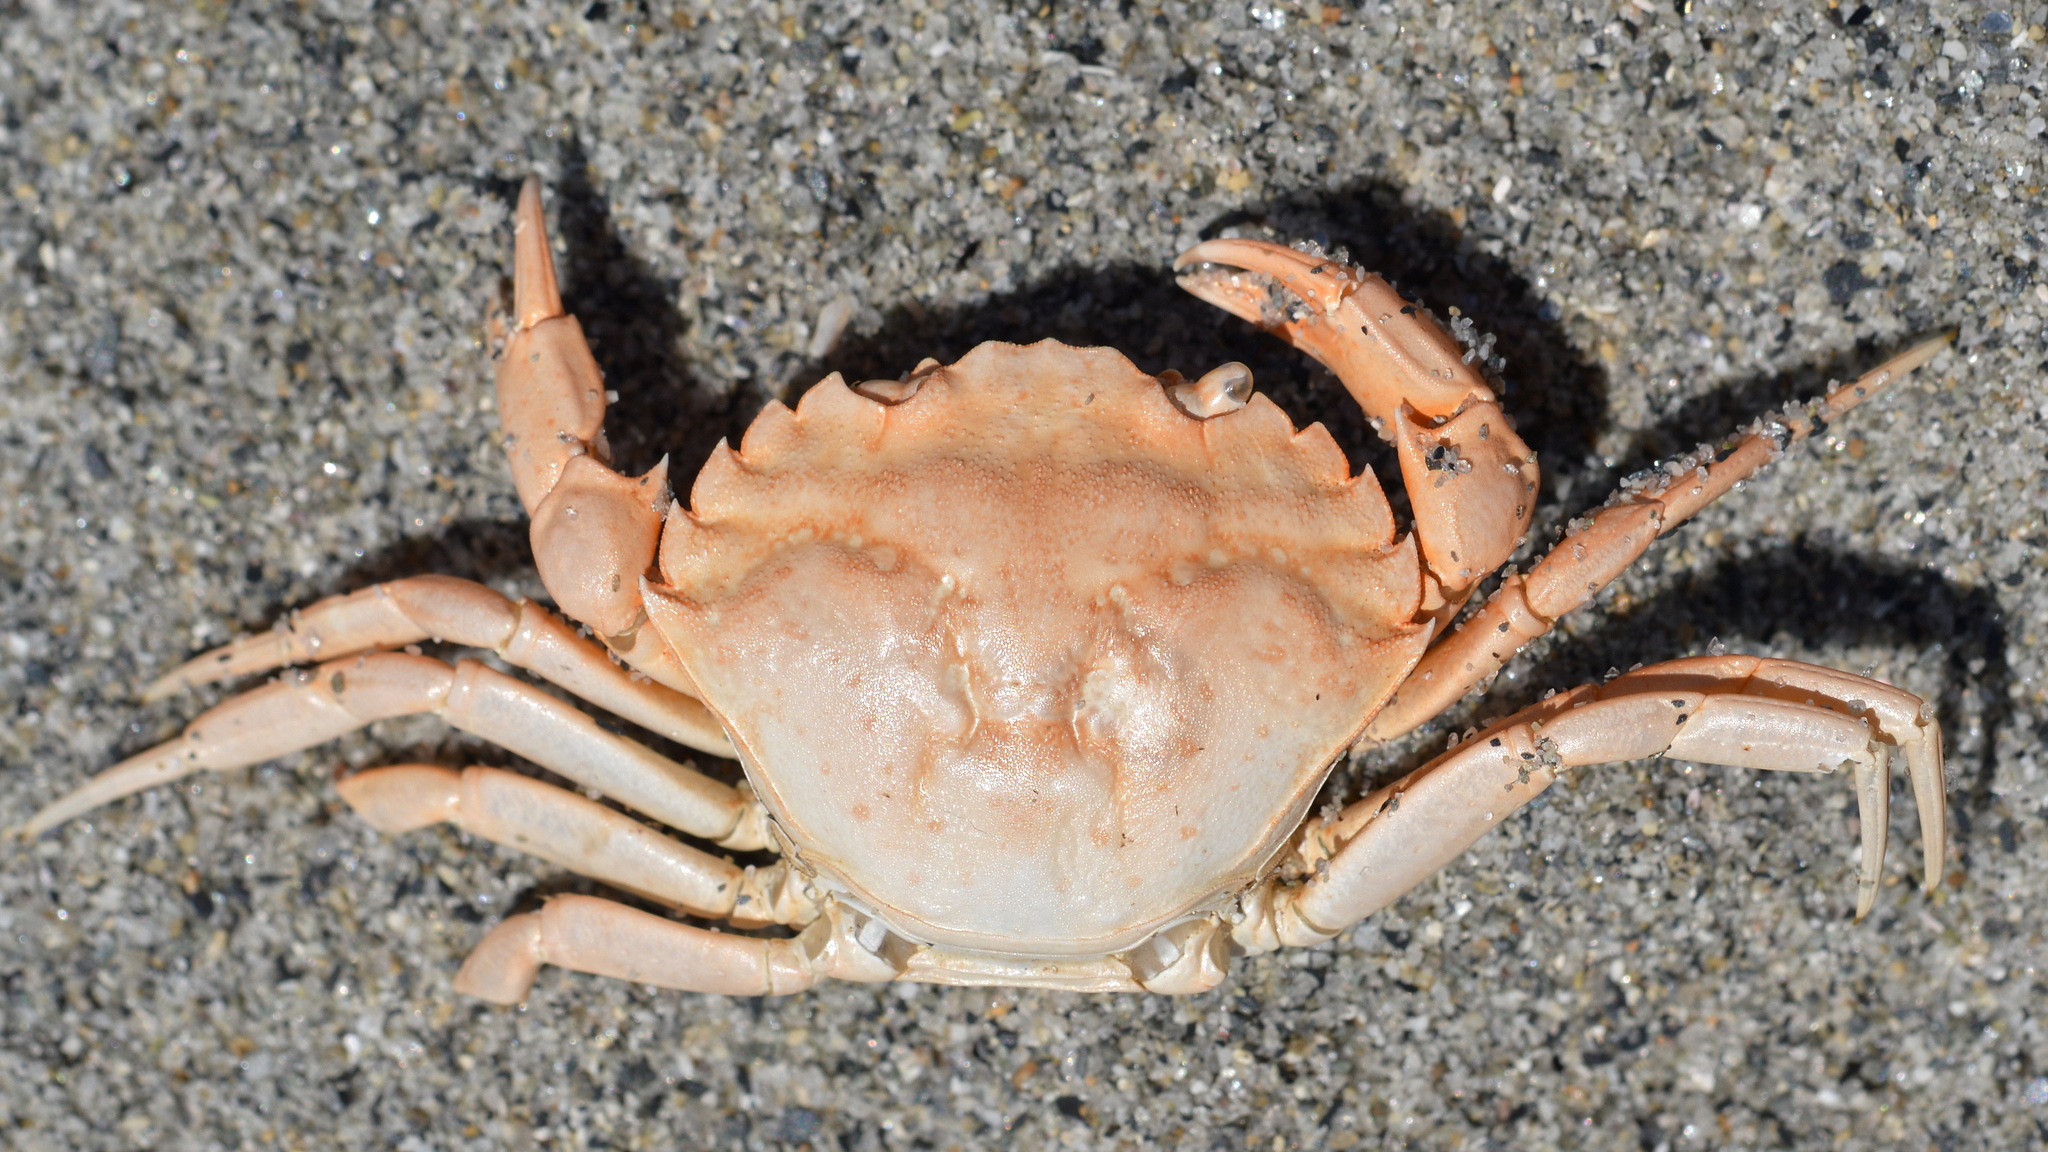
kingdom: Animalia
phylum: Arthropoda
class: Malacostraca
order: Decapoda
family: Carcinidae
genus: Carcinus
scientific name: Carcinus maenas
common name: European green crab
